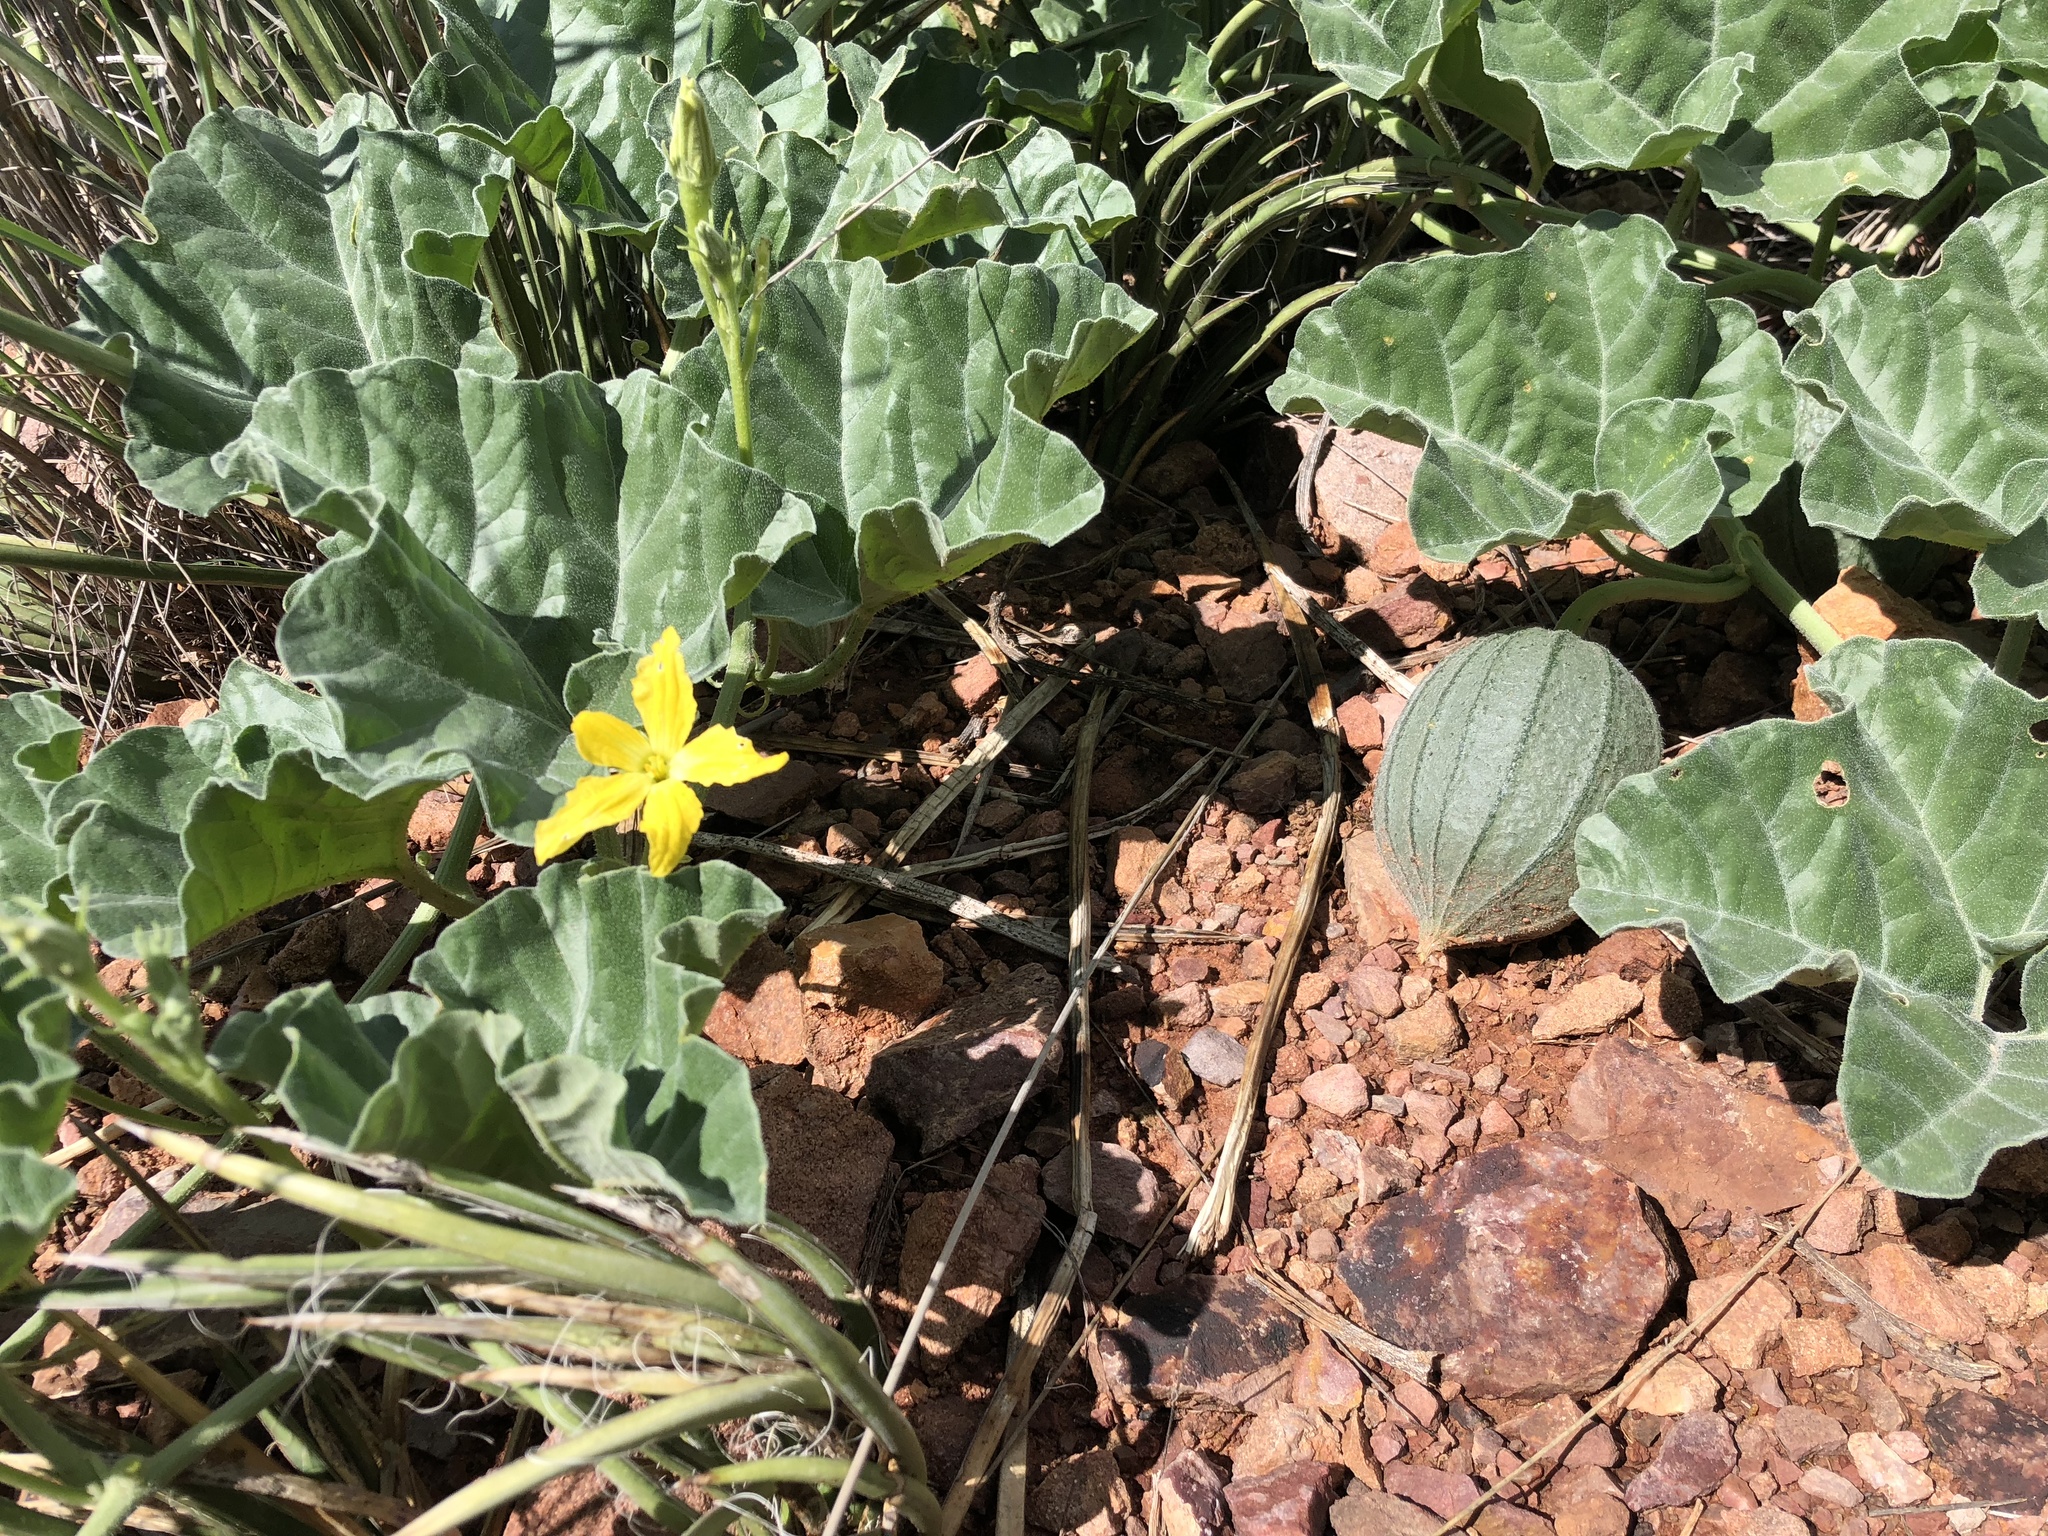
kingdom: Plantae
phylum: Tracheophyta
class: Magnoliopsida
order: Cucurbitales
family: Cucurbitaceae
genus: Apodanthera
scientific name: Apodanthera undulata
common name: Melon-loco
